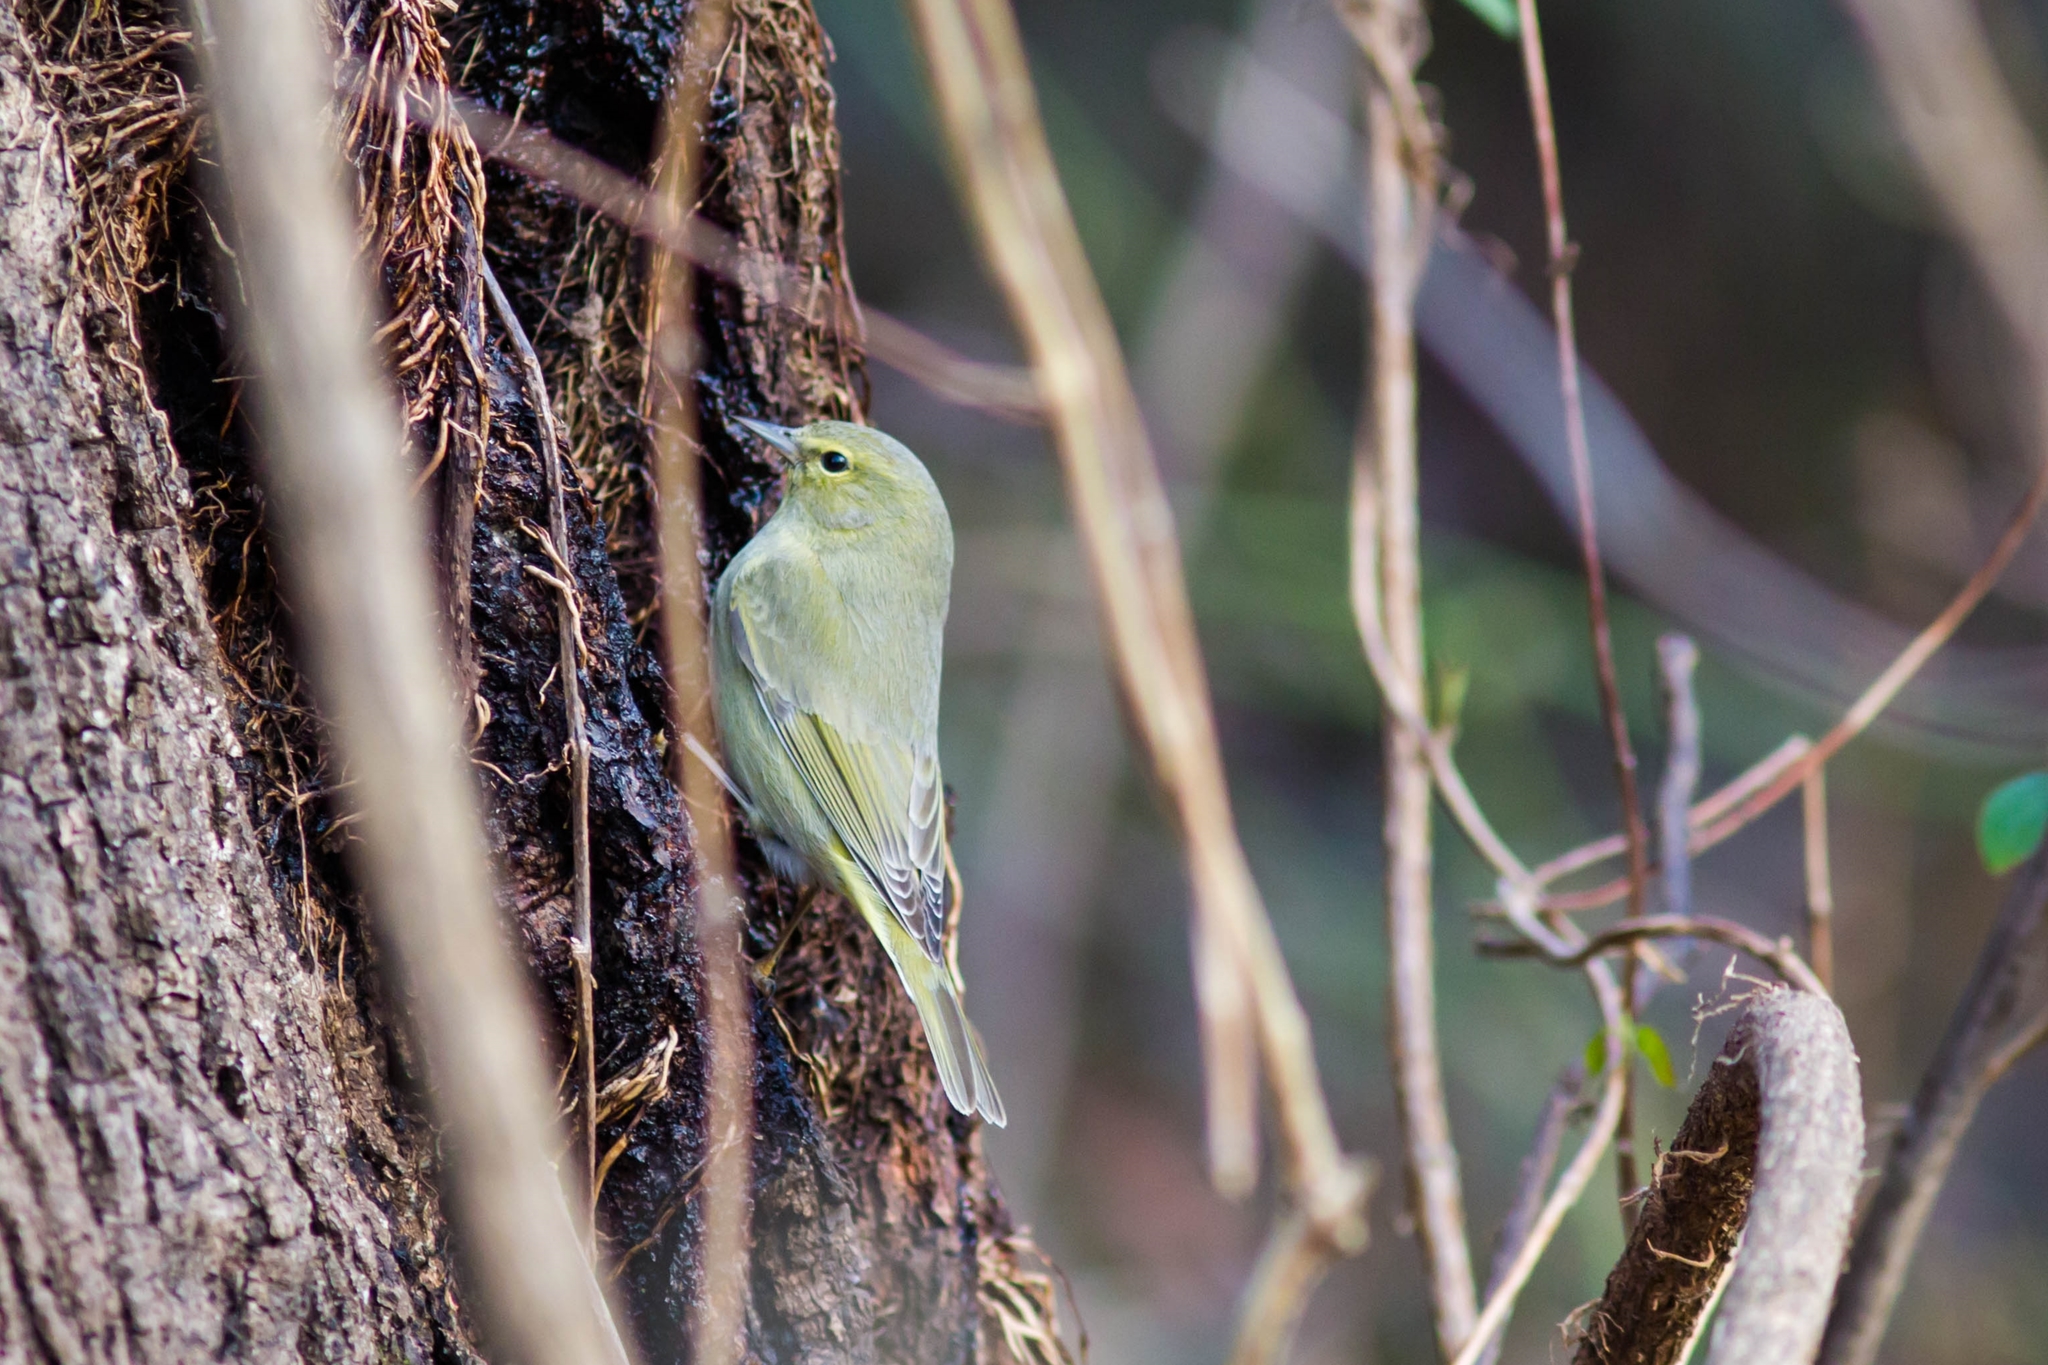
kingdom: Animalia
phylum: Chordata
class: Aves
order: Passeriformes
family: Parulidae
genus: Leiothlypis
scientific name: Leiothlypis celata
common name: Orange-crowned warbler
